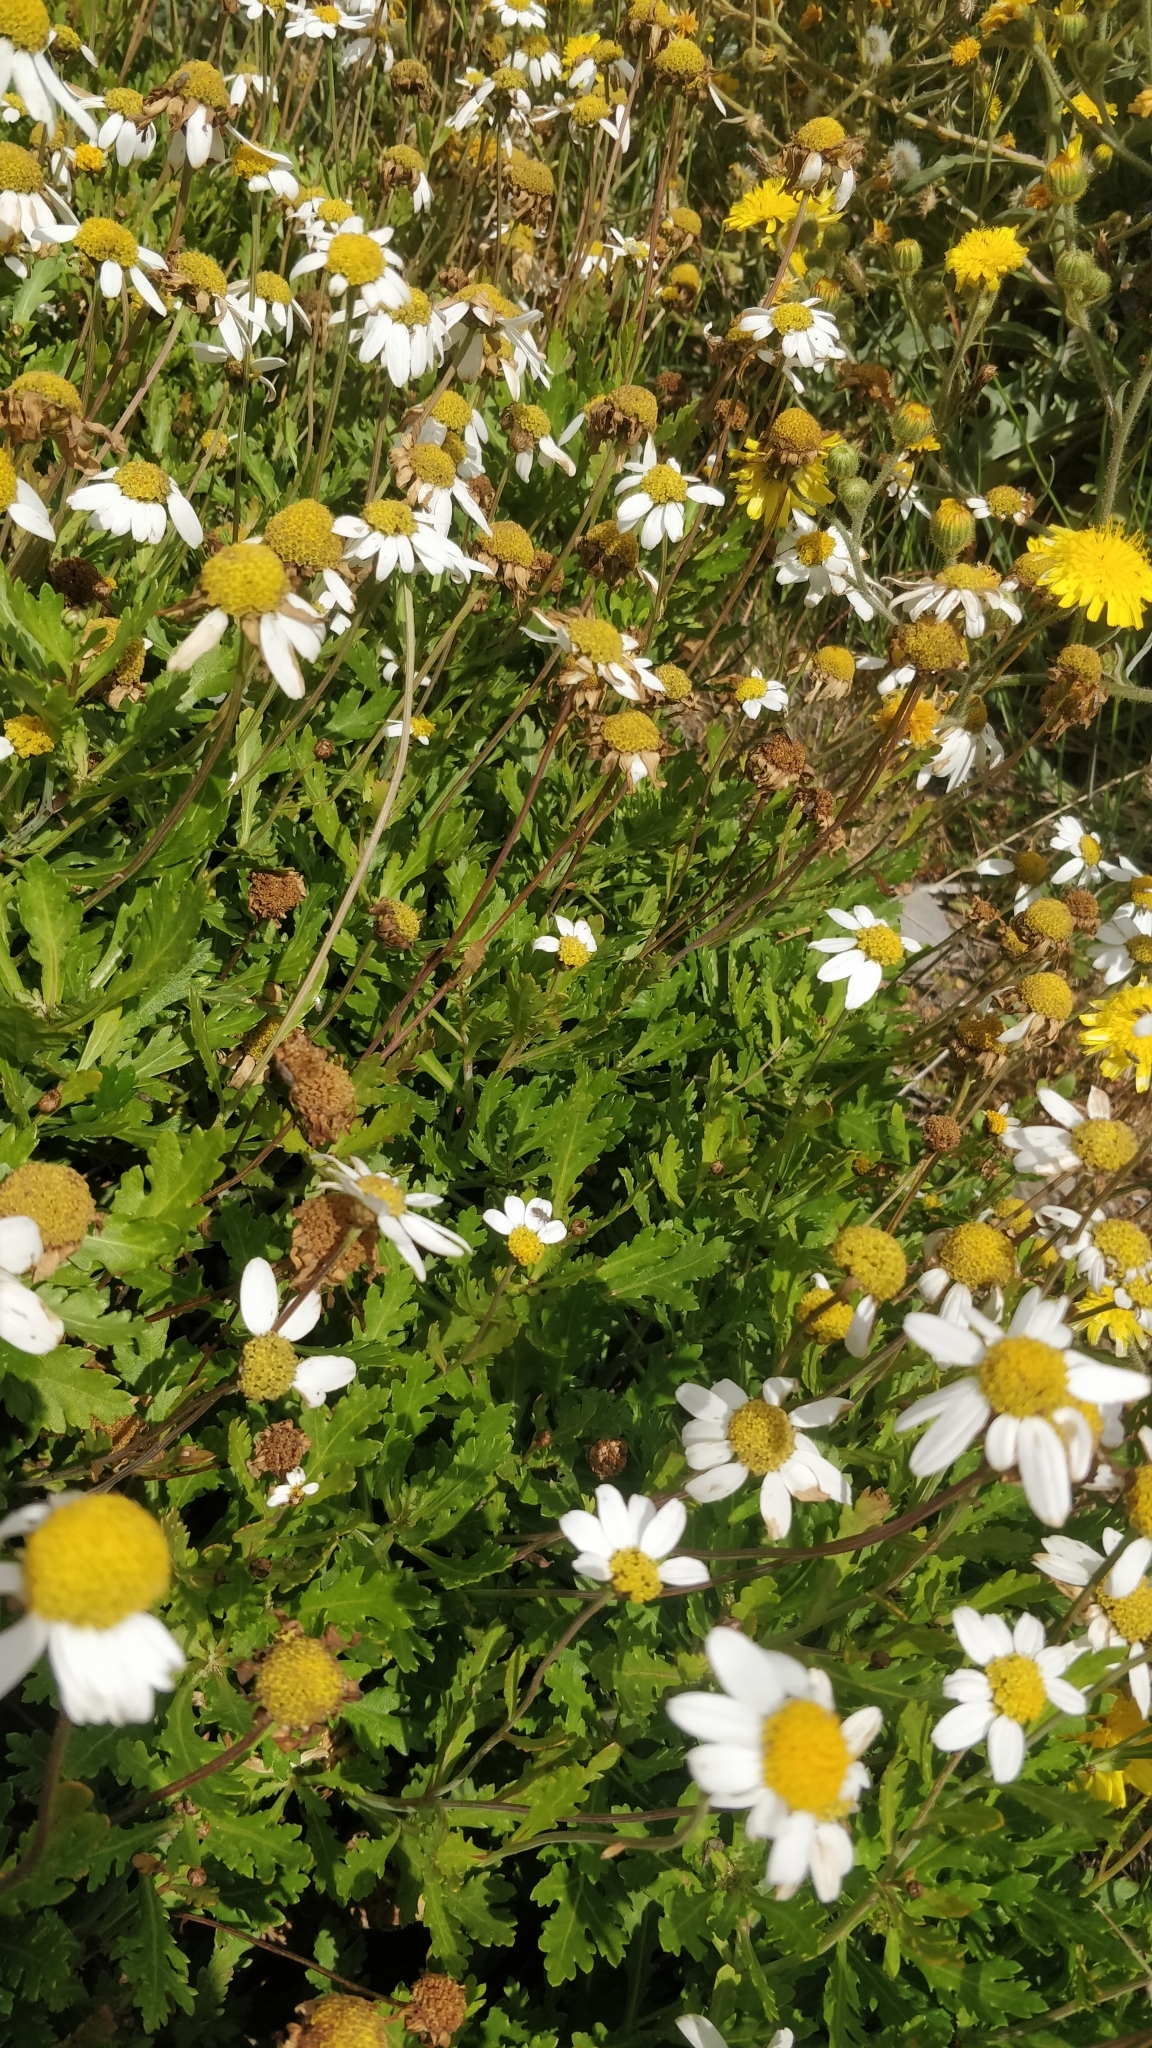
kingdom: Plantae
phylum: Tracheophyta
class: Magnoliopsida
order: Asterales
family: Asteraceae
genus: Argyranthemum
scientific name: Argyranthemum pinnatifidum
